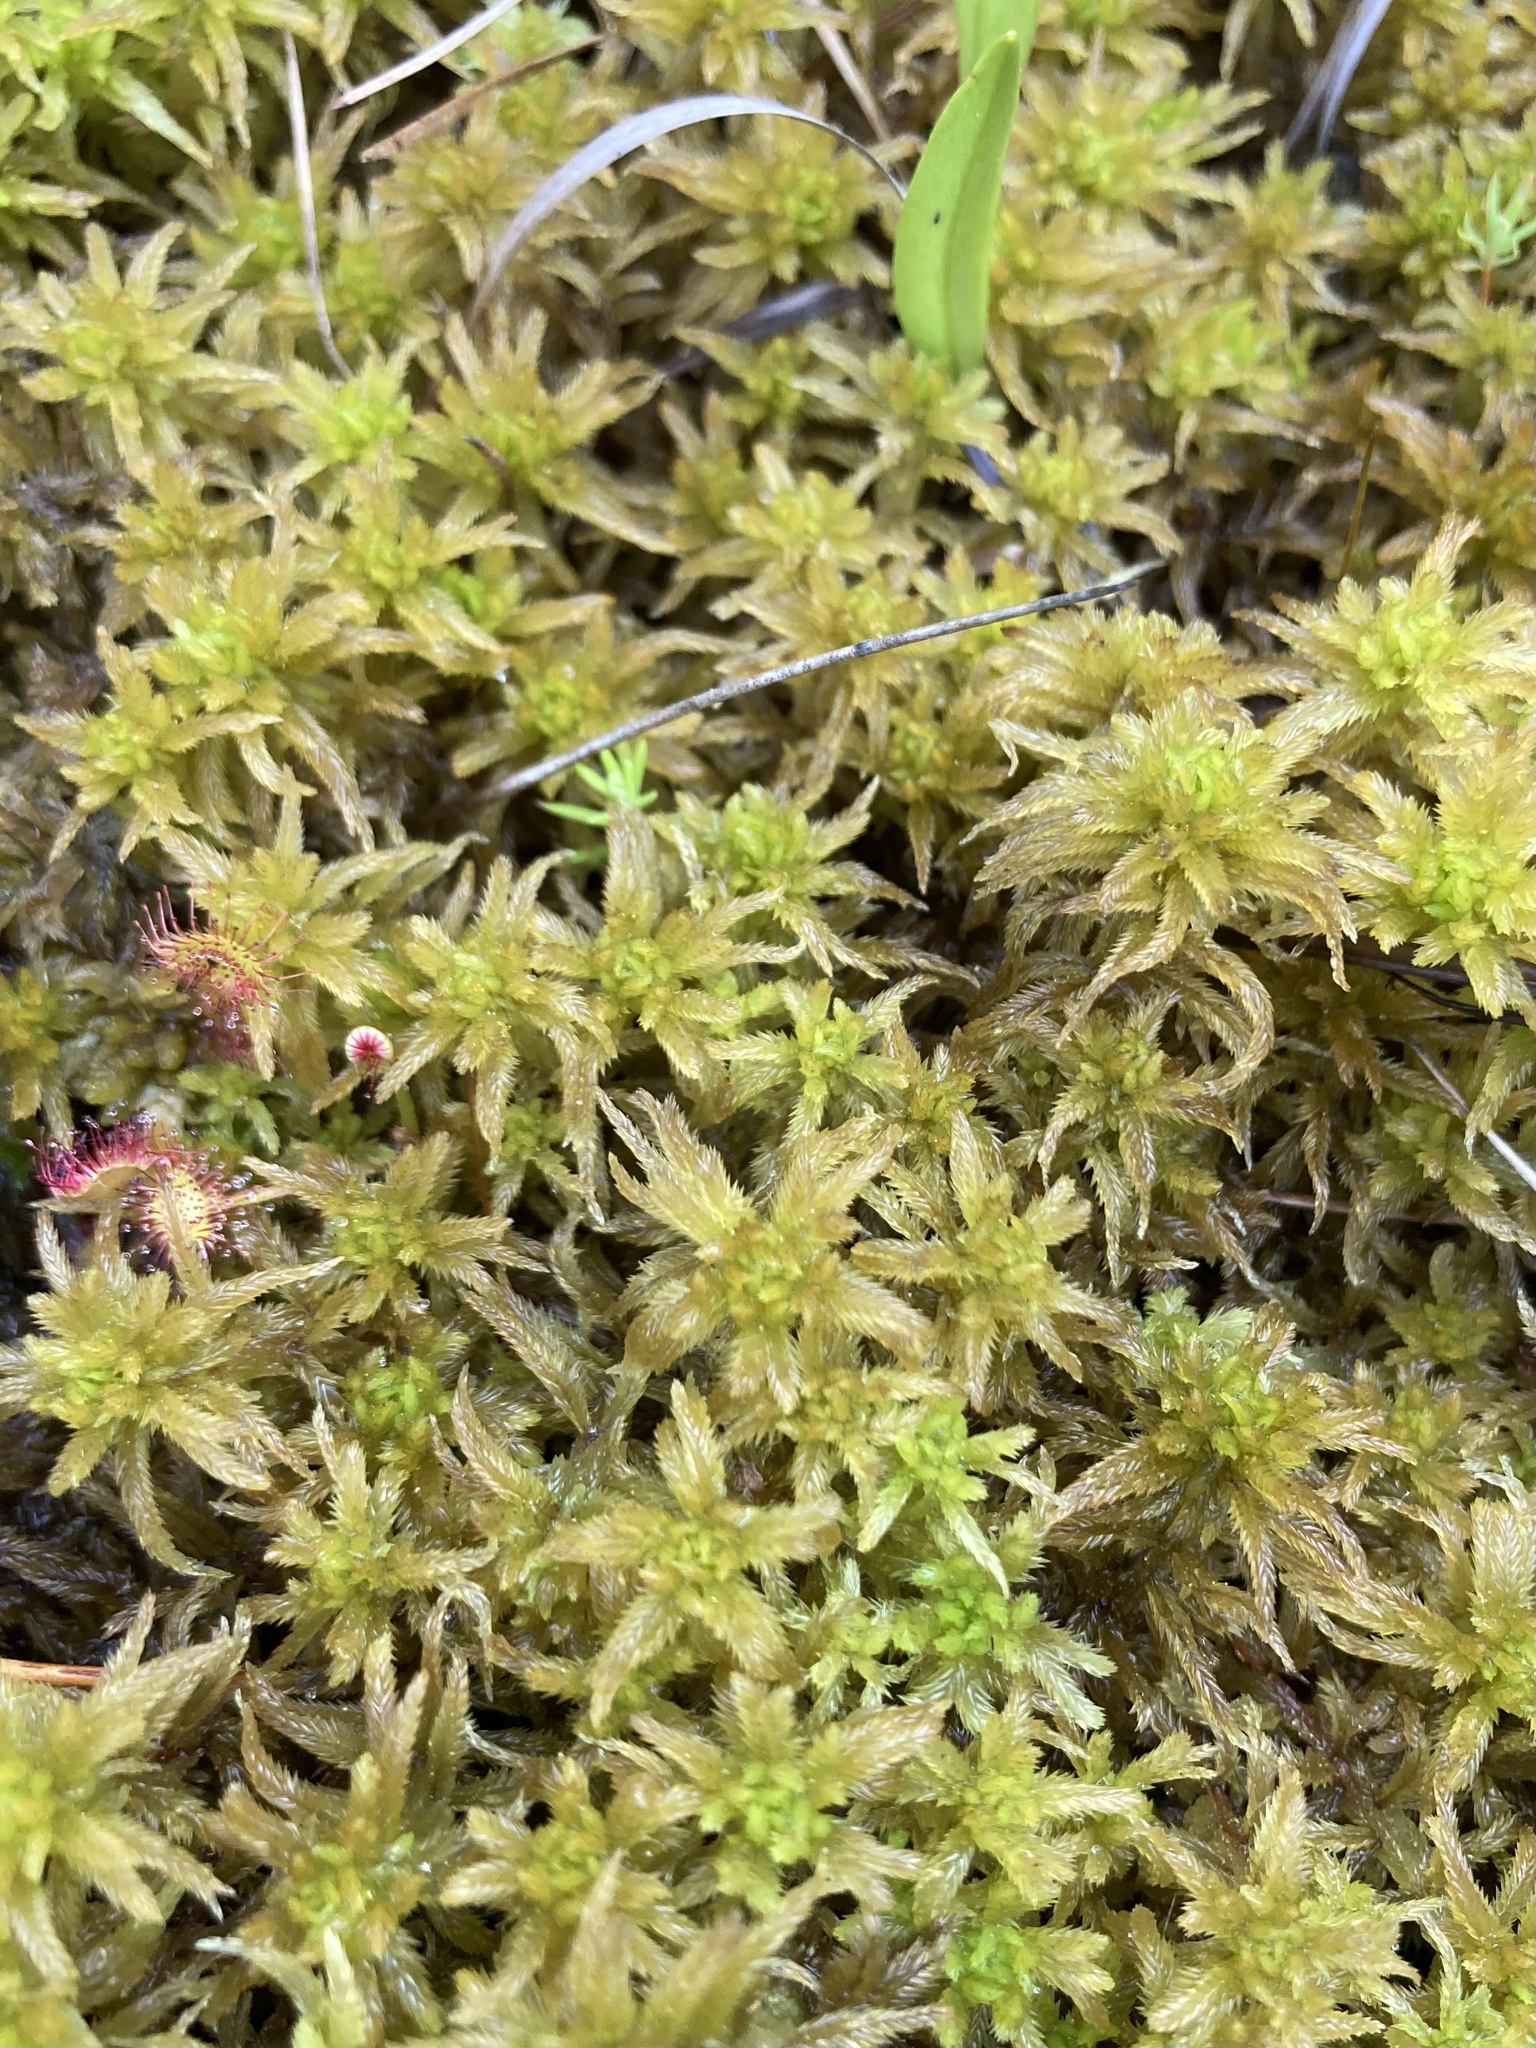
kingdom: Plantae
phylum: Bryophyta
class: Sphagnopsida
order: Sphagnales
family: Sphagnaceae
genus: Sphagnum
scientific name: Sphagnum pulchrum
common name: Beautiful peat moss
